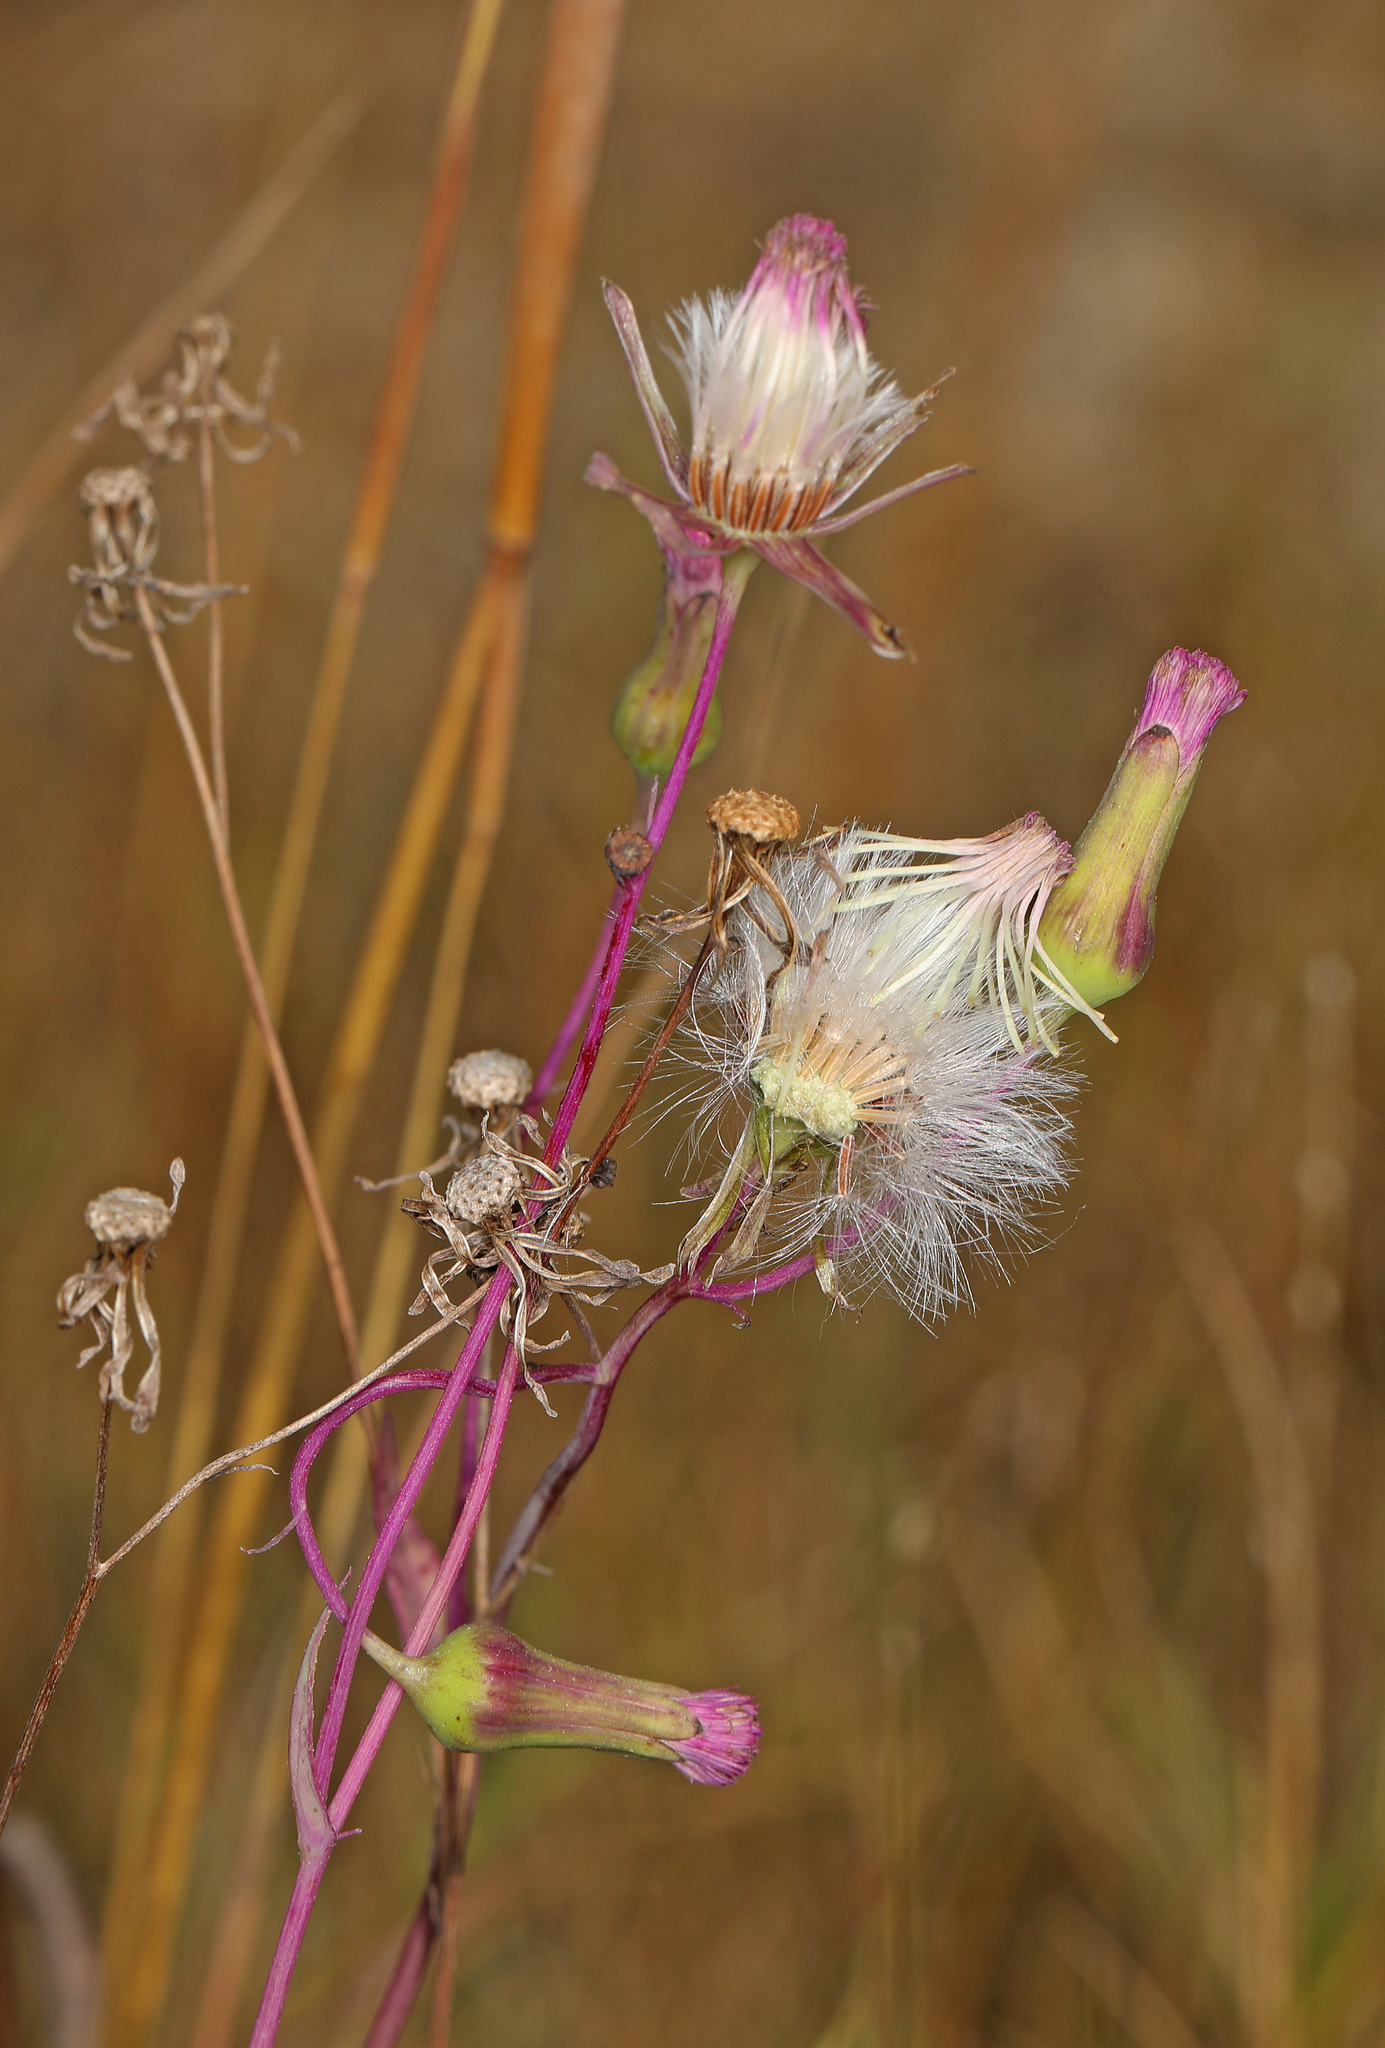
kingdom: Plantae
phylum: Tracheophyta
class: Magnoliopsida
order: Asterales
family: Asteraceae
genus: Emilia
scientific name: Emilia sonchifolia
